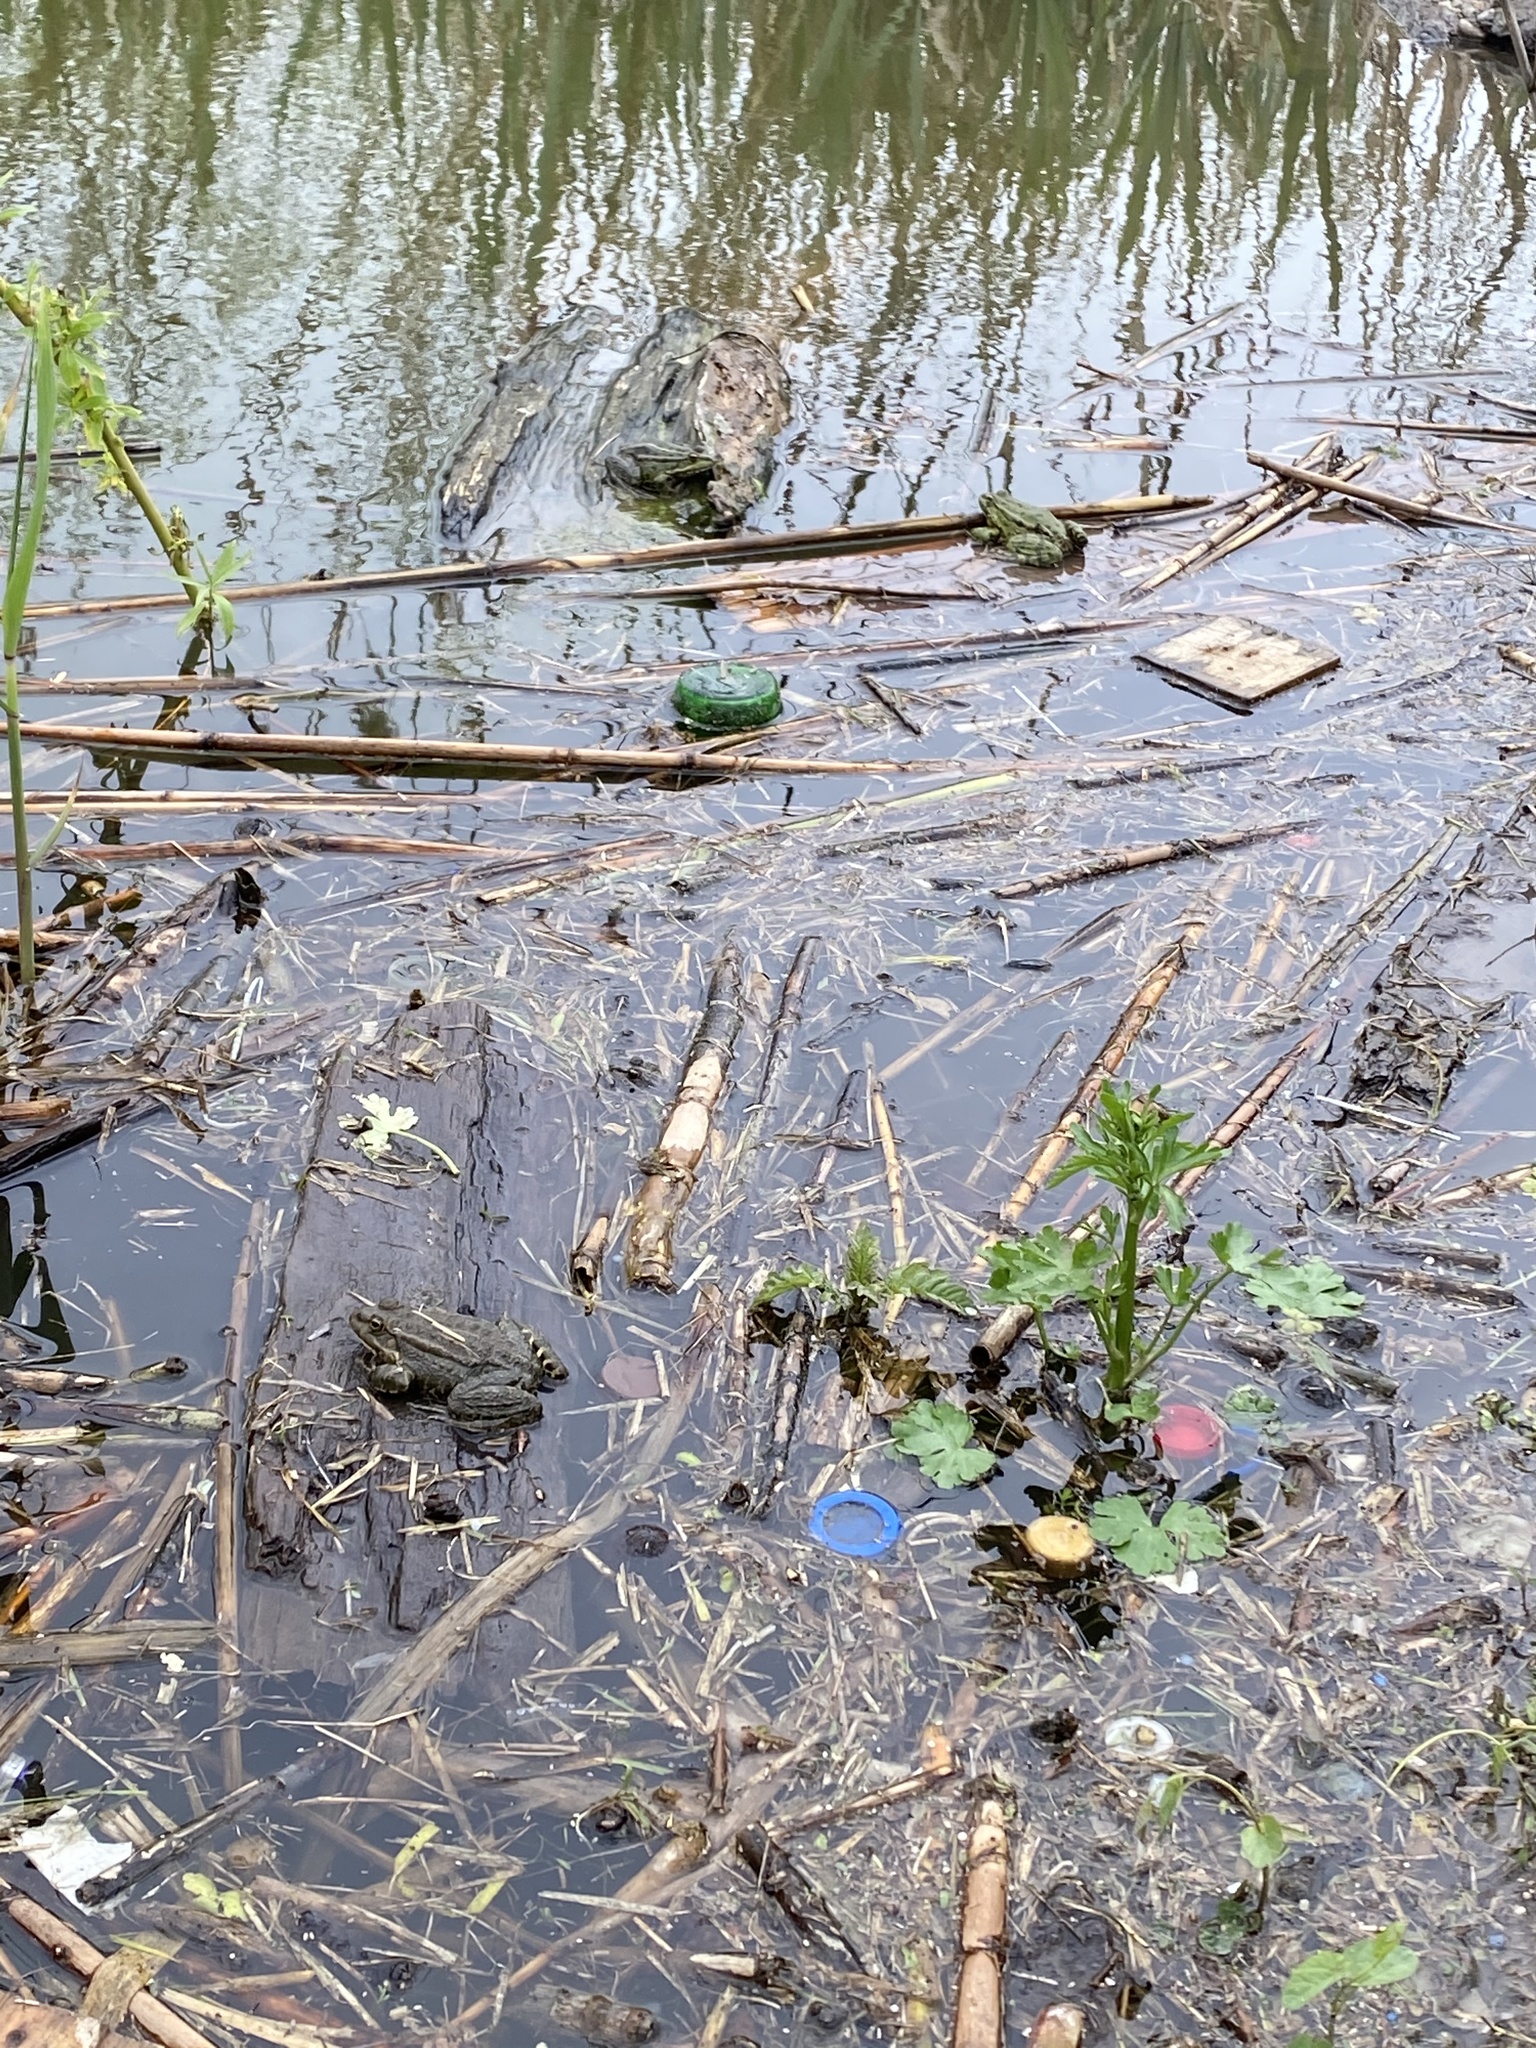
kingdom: Animalia
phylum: Chordata
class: Amphibia
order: Anura
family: Ranidae
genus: Pelophylax
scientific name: Pelophylax ridibundus
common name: Marsh frog
